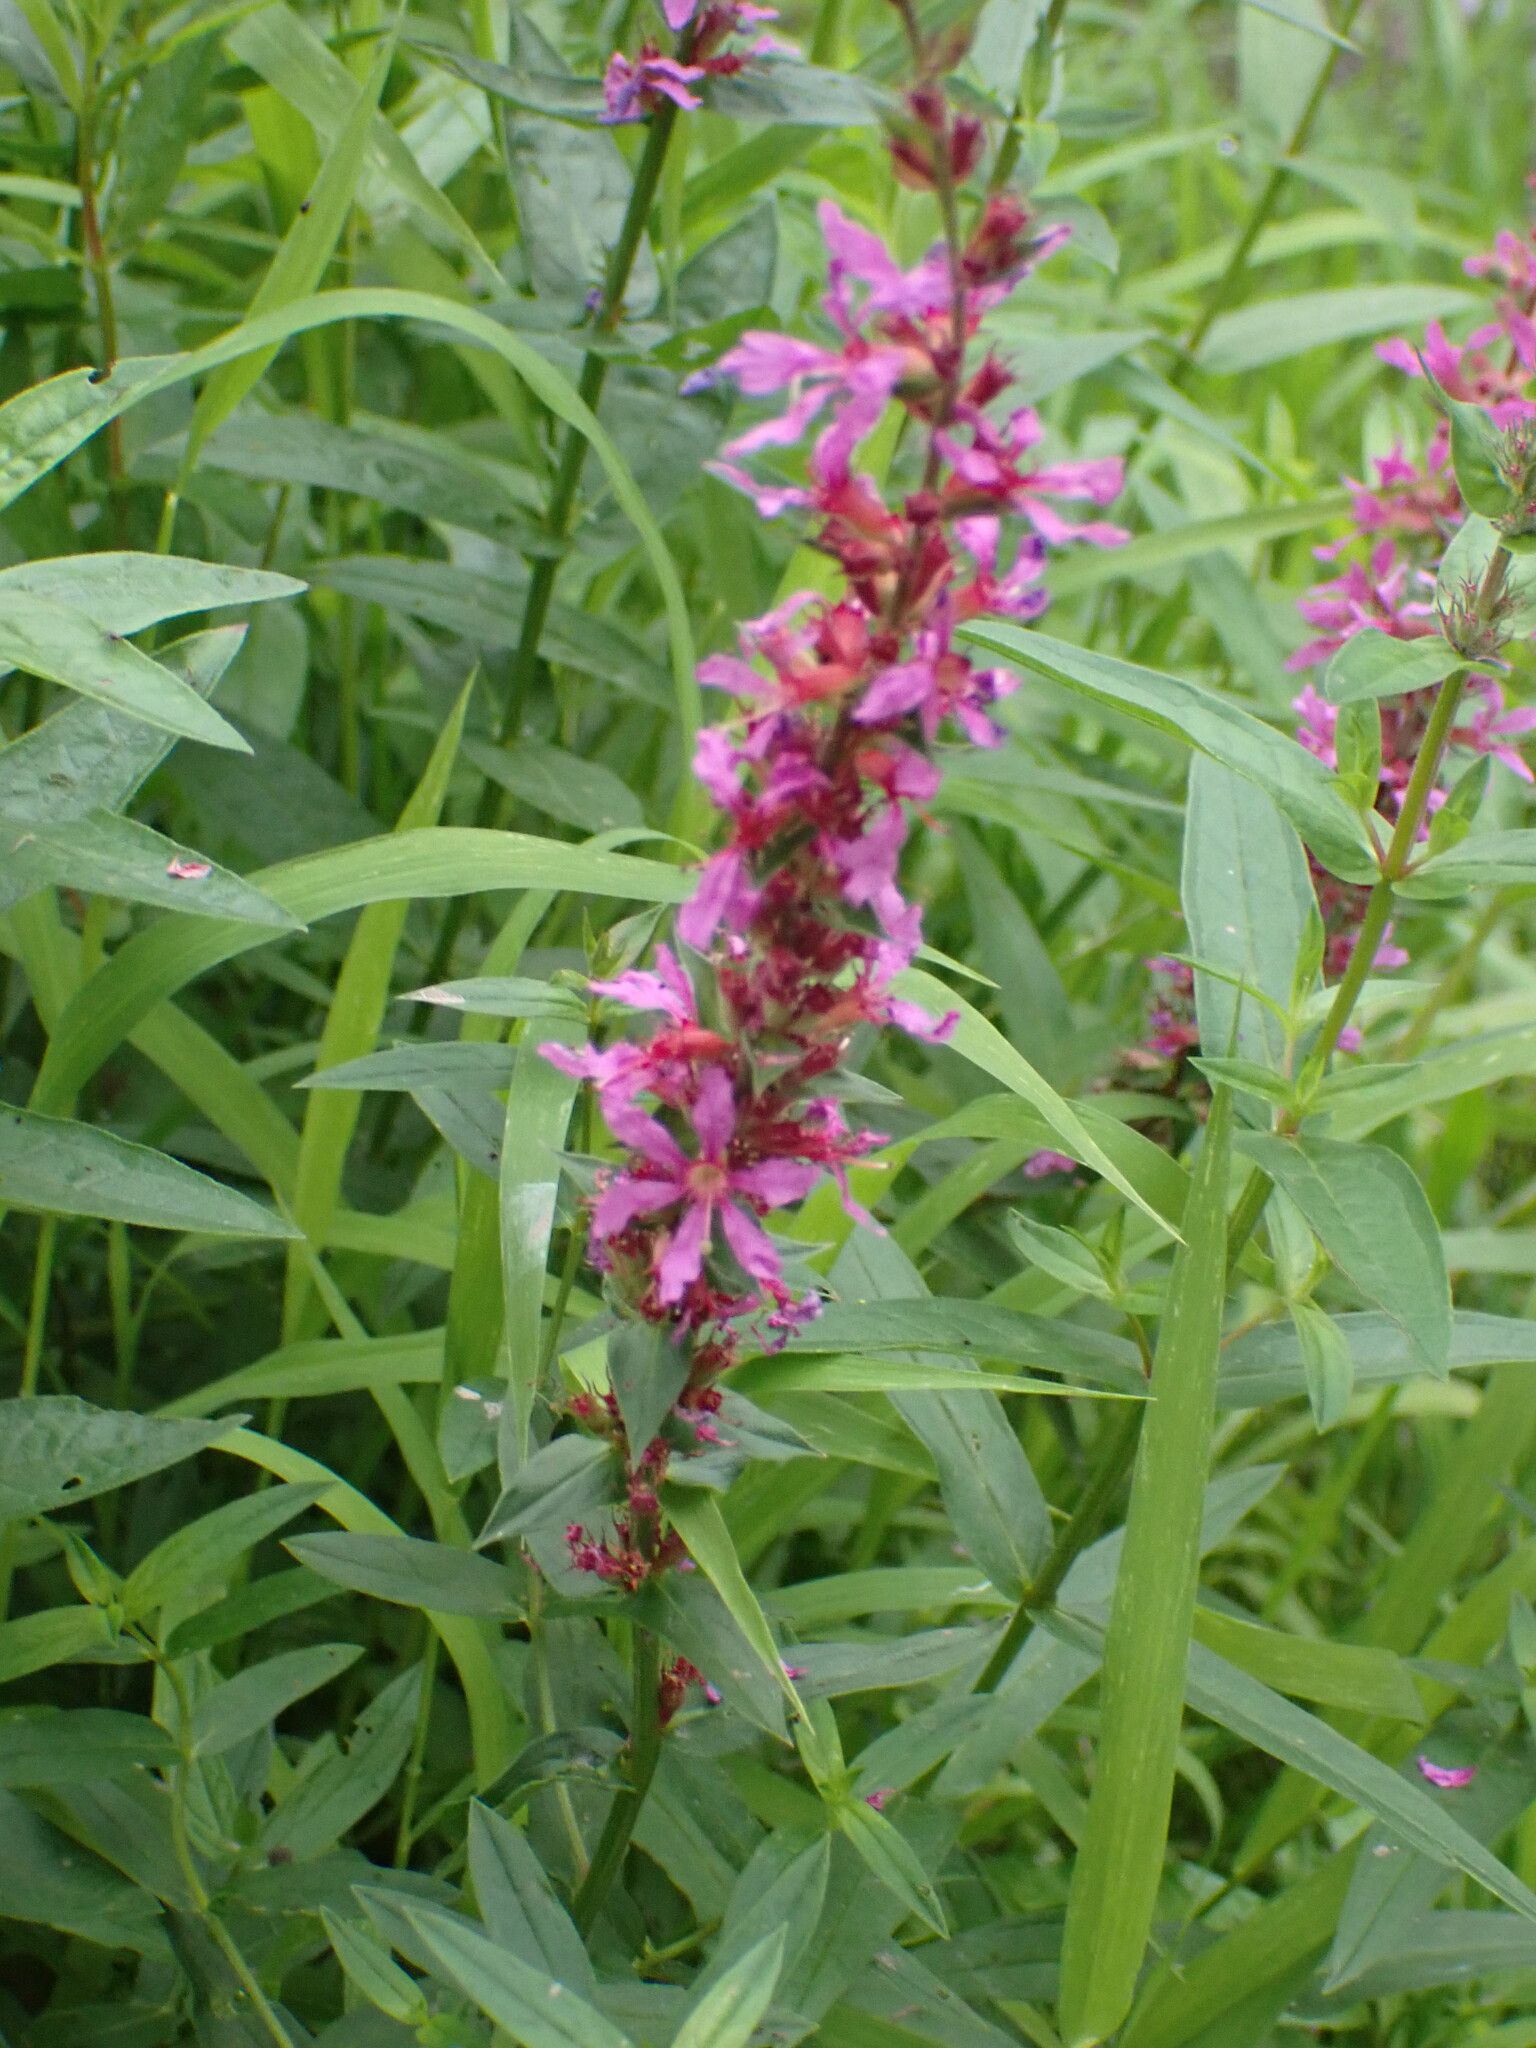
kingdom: Plantae
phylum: Tracheophyta
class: Magnoliopsida
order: Myrtales
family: Lythraceae
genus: Lythrum
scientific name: Lythrum salicaria
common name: Purple loosestrife
